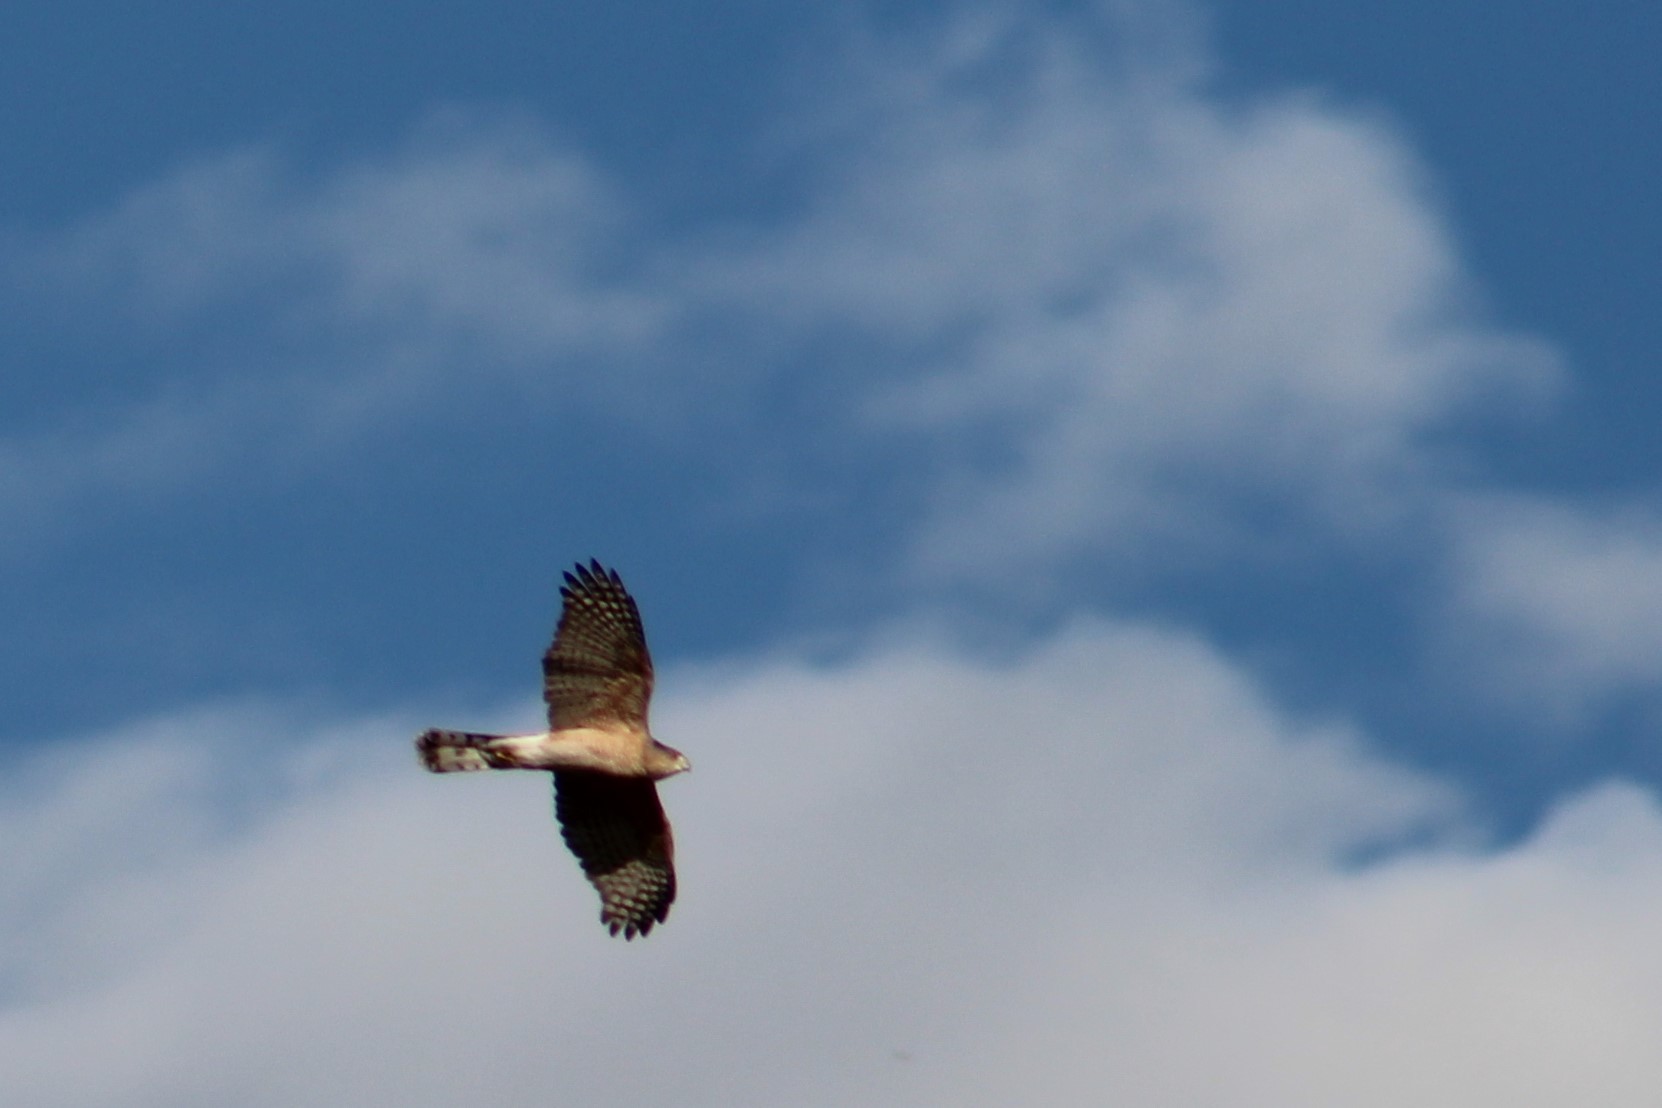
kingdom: Animalia
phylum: Chordata
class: Aves
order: Accipitriformes
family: Accipitridae
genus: Accipiter
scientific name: Accipiter cooperii
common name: Cooper's hawk
